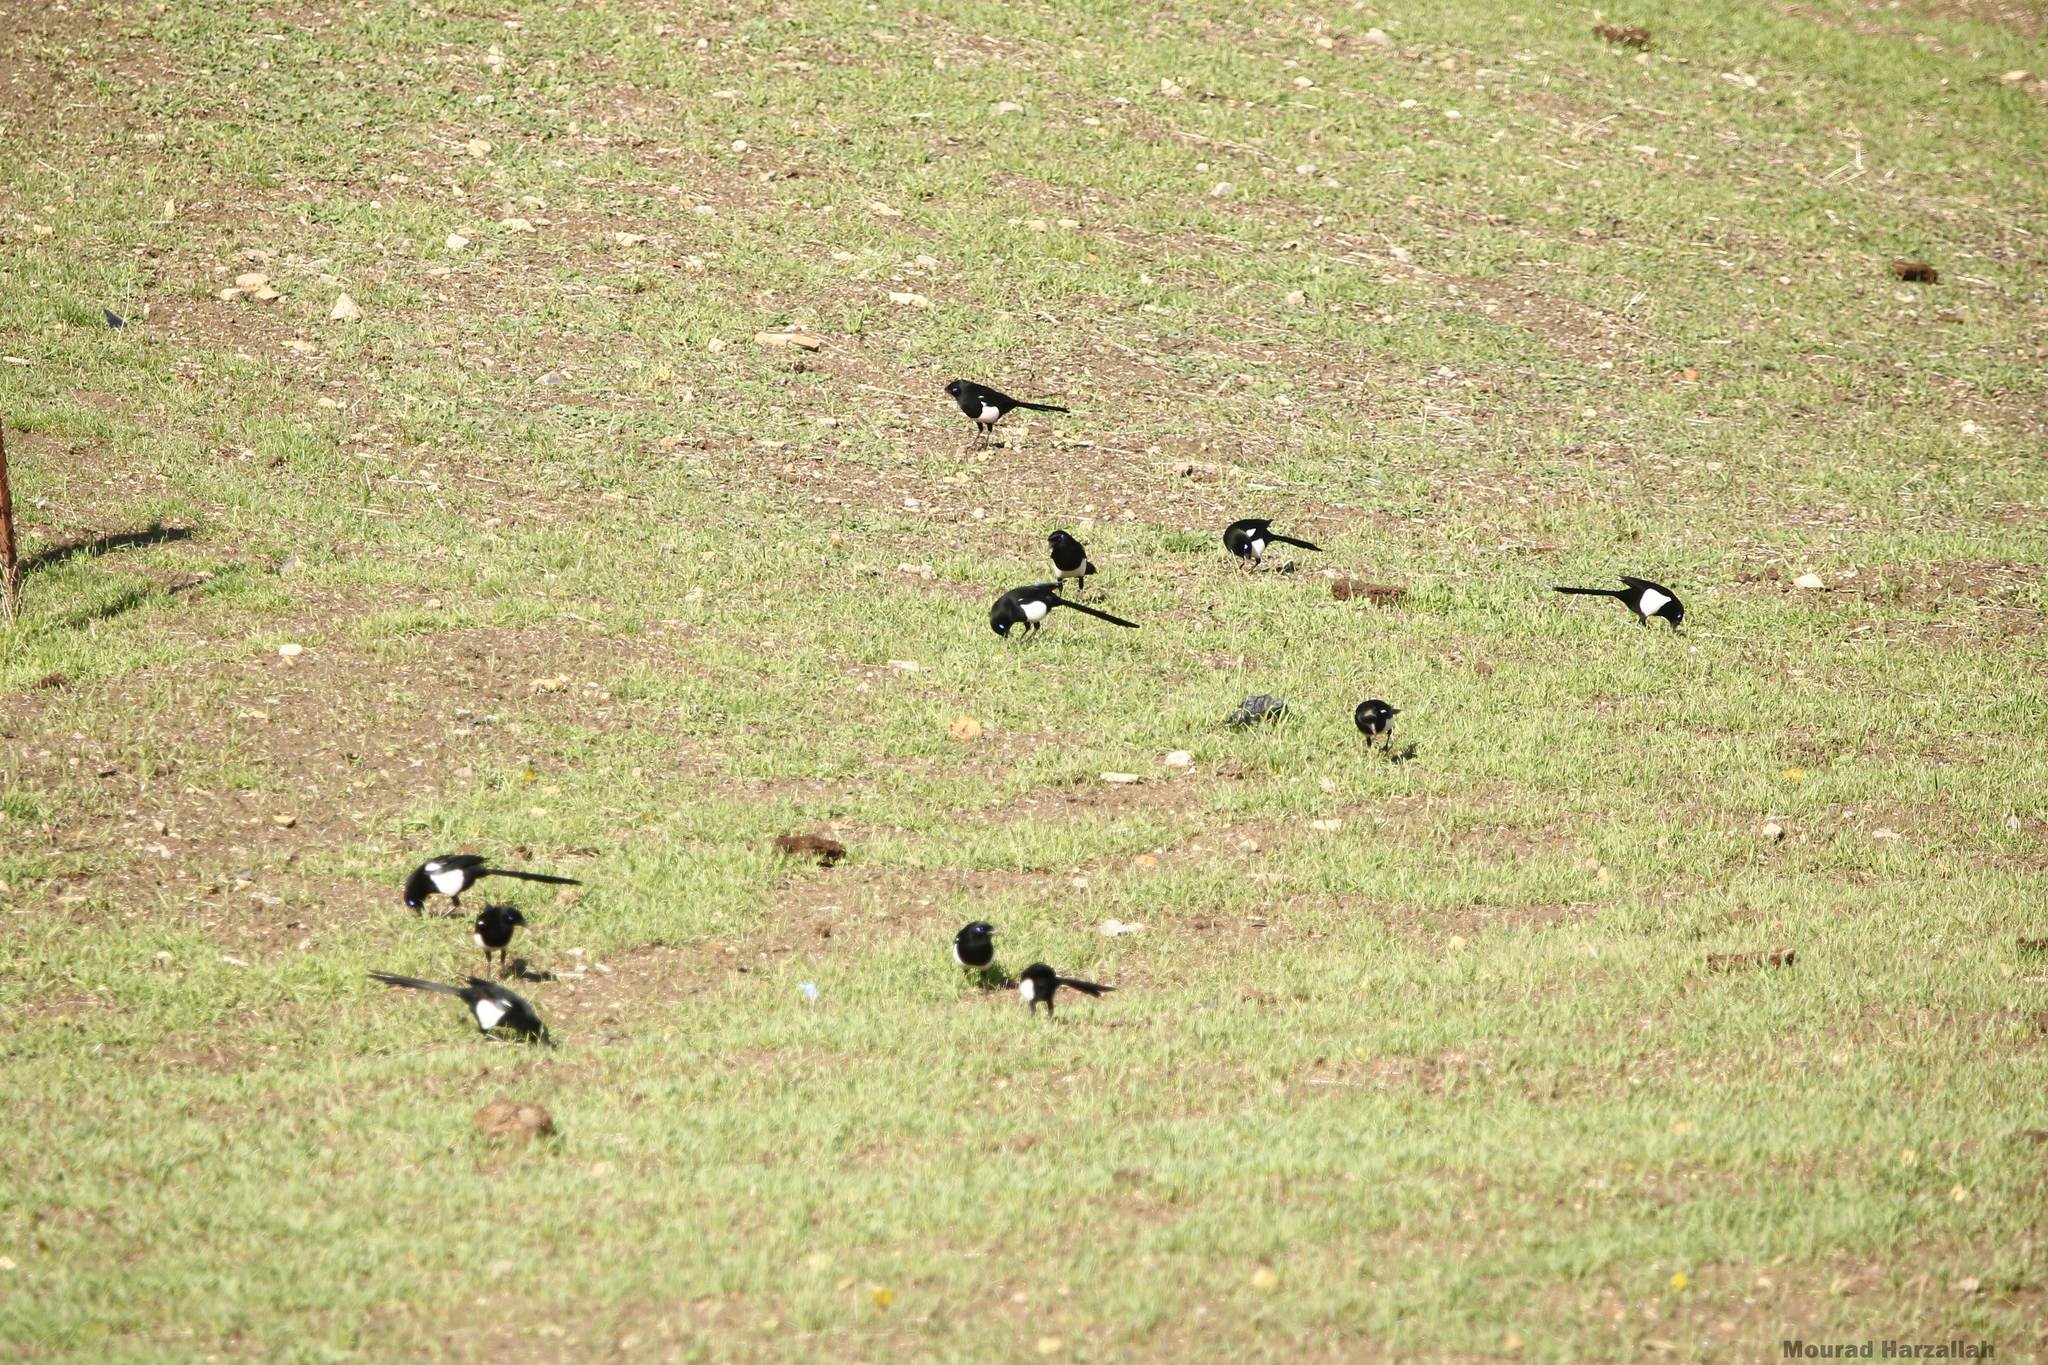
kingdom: Animalia
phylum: Chordata
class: Aves
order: Passeriformes
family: Corvidae
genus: Pica
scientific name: Pica mauritanica
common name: Maghreb magpie
